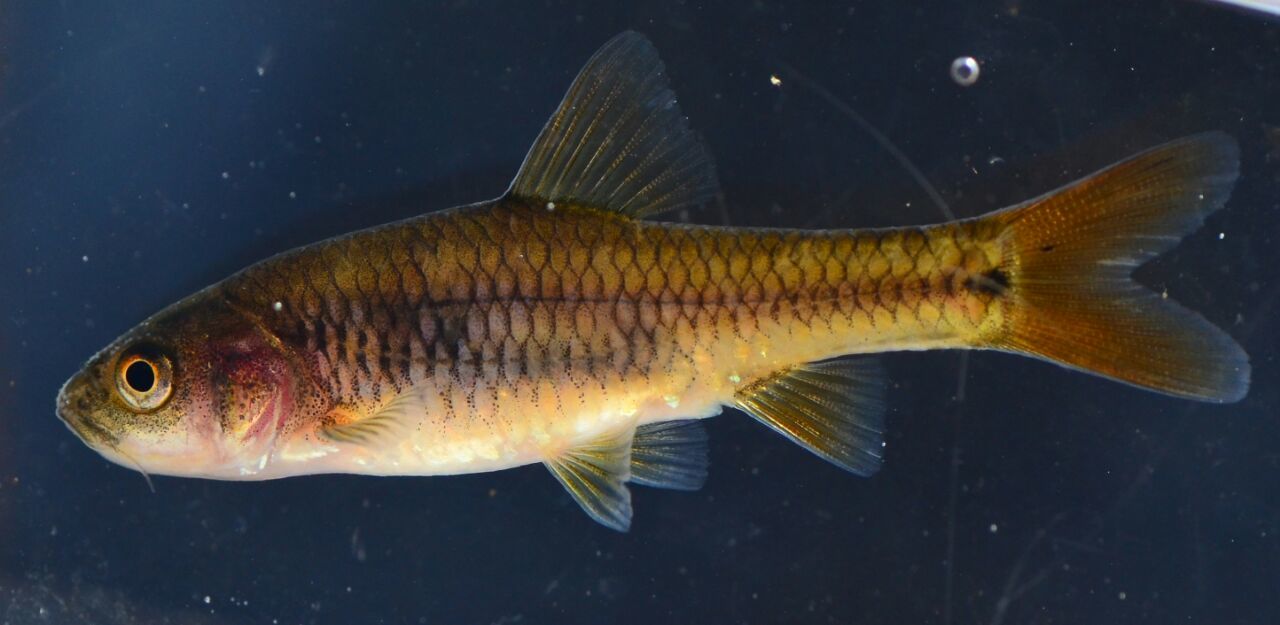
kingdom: Animalia
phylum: Chordata
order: Cypriniformes
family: Cyprinidae
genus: Enteromius
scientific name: Enteromius gurneyi
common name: Redtail barb
